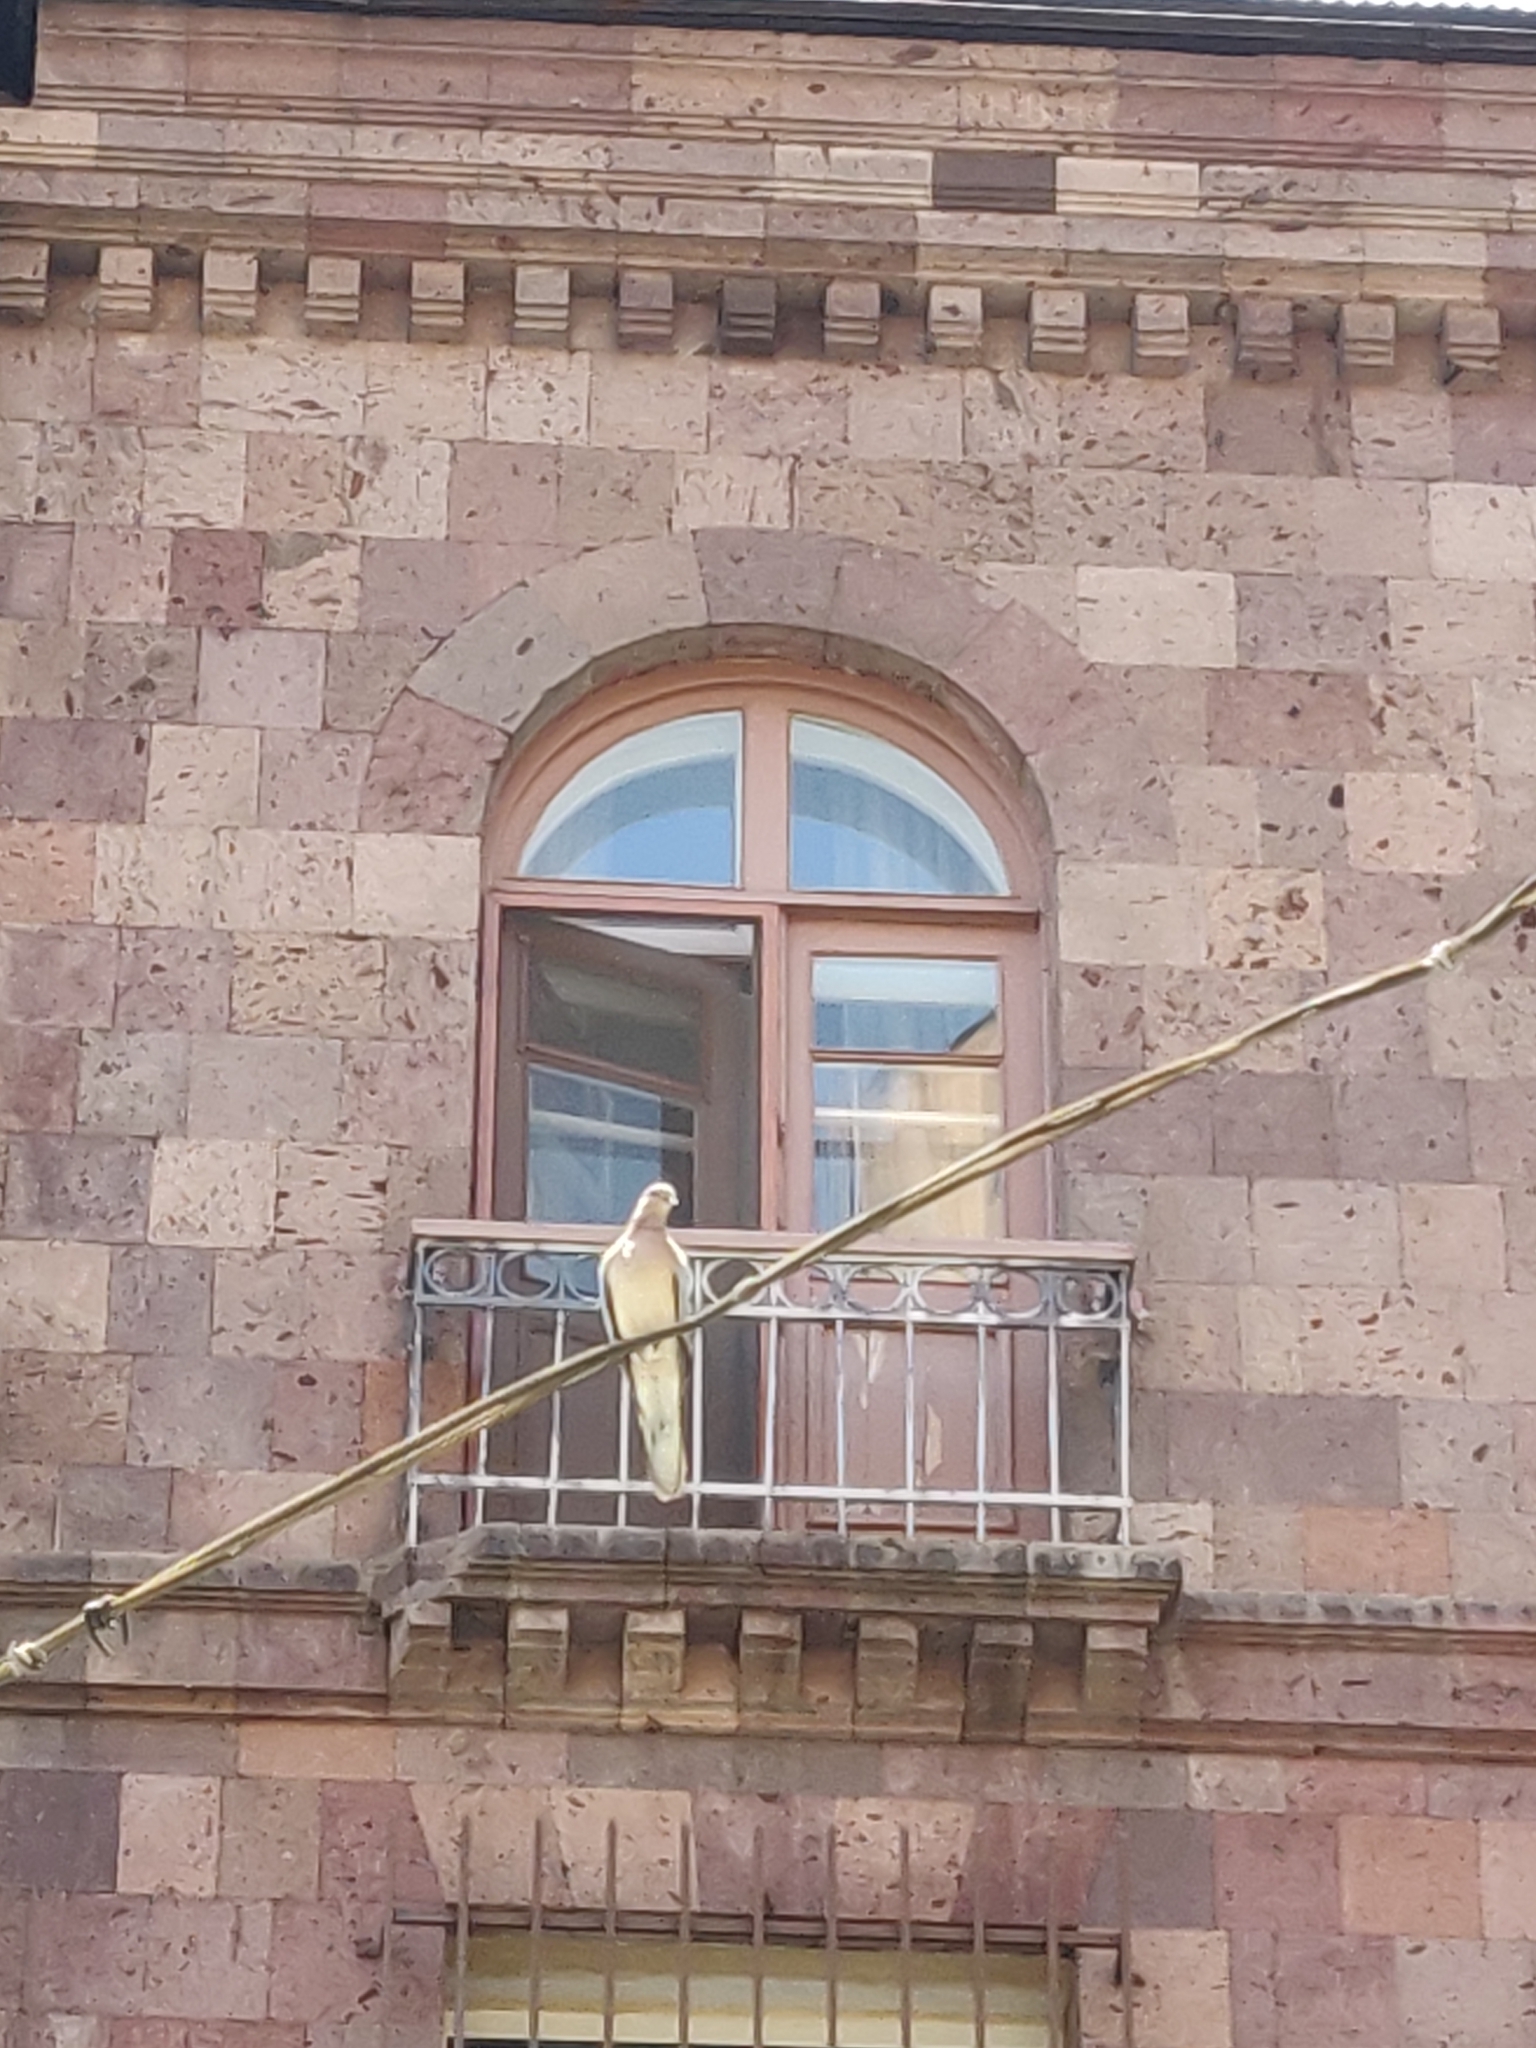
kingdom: Animalia
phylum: Chordata
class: Aves
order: Columbiformes
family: Columbidae
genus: Spilopelia
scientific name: Spilopelia senegalensis
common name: Laughing dove
